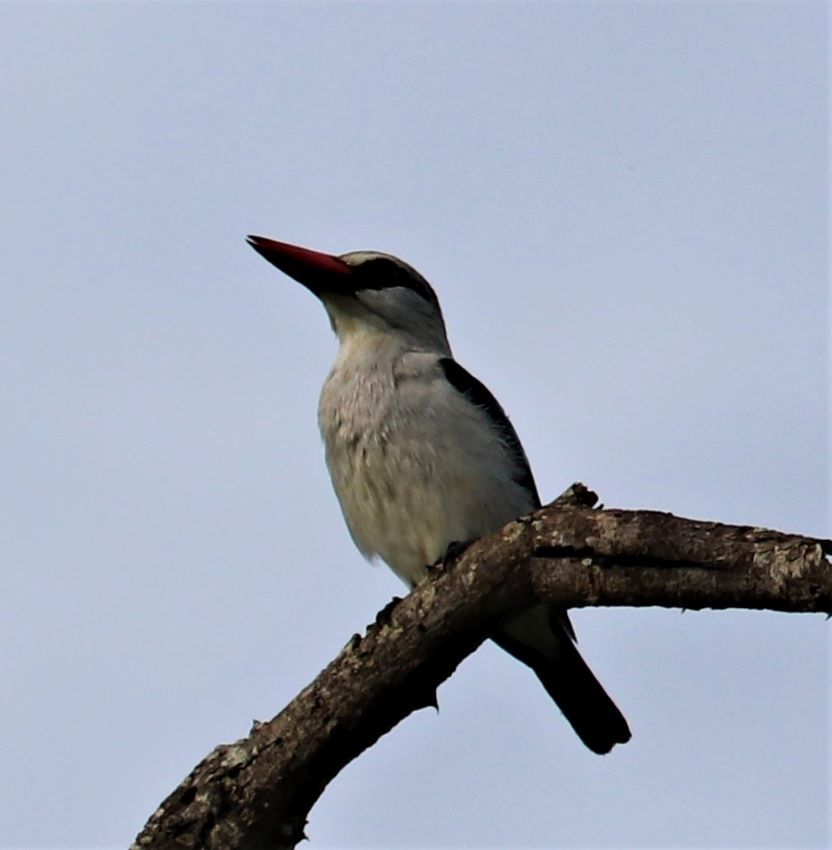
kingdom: Animalia
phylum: Chordata
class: Aves
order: Coraciiformes
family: Alcedinidae
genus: Halcyon
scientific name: Halcyon senegalensis
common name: Woodland kingfisher
